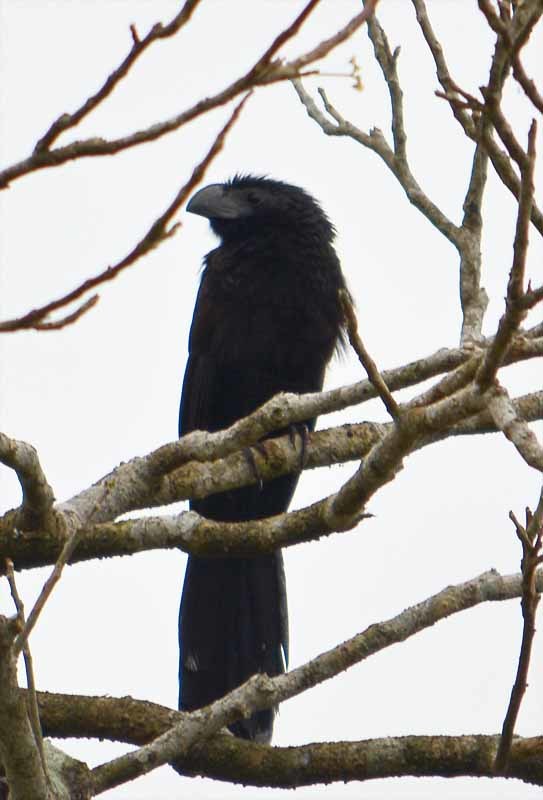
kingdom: Animalia
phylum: Chordata
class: Aves
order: Cuculiformes
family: Cuculidae
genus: Crotophaga
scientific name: Crotophaga sulcirostris
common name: Groove-billed ani
